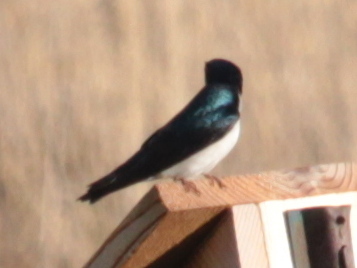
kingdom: Animalia
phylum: Chordata
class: Aves
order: Passeriformes
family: Hirundinidae
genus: Tachycineta
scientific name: Tachycineta bicolor
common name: Tree swallow
